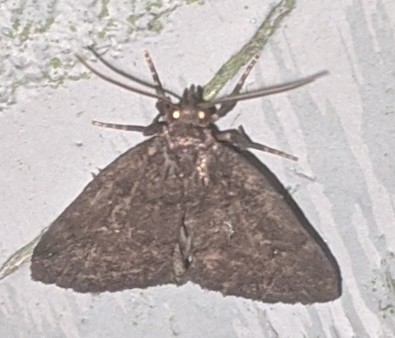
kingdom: Animalia
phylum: Arthropoda
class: Insecta
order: Lepidoptera
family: Erebidae
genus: Idia
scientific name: Idia rotundalis
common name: Rotund idia moth
